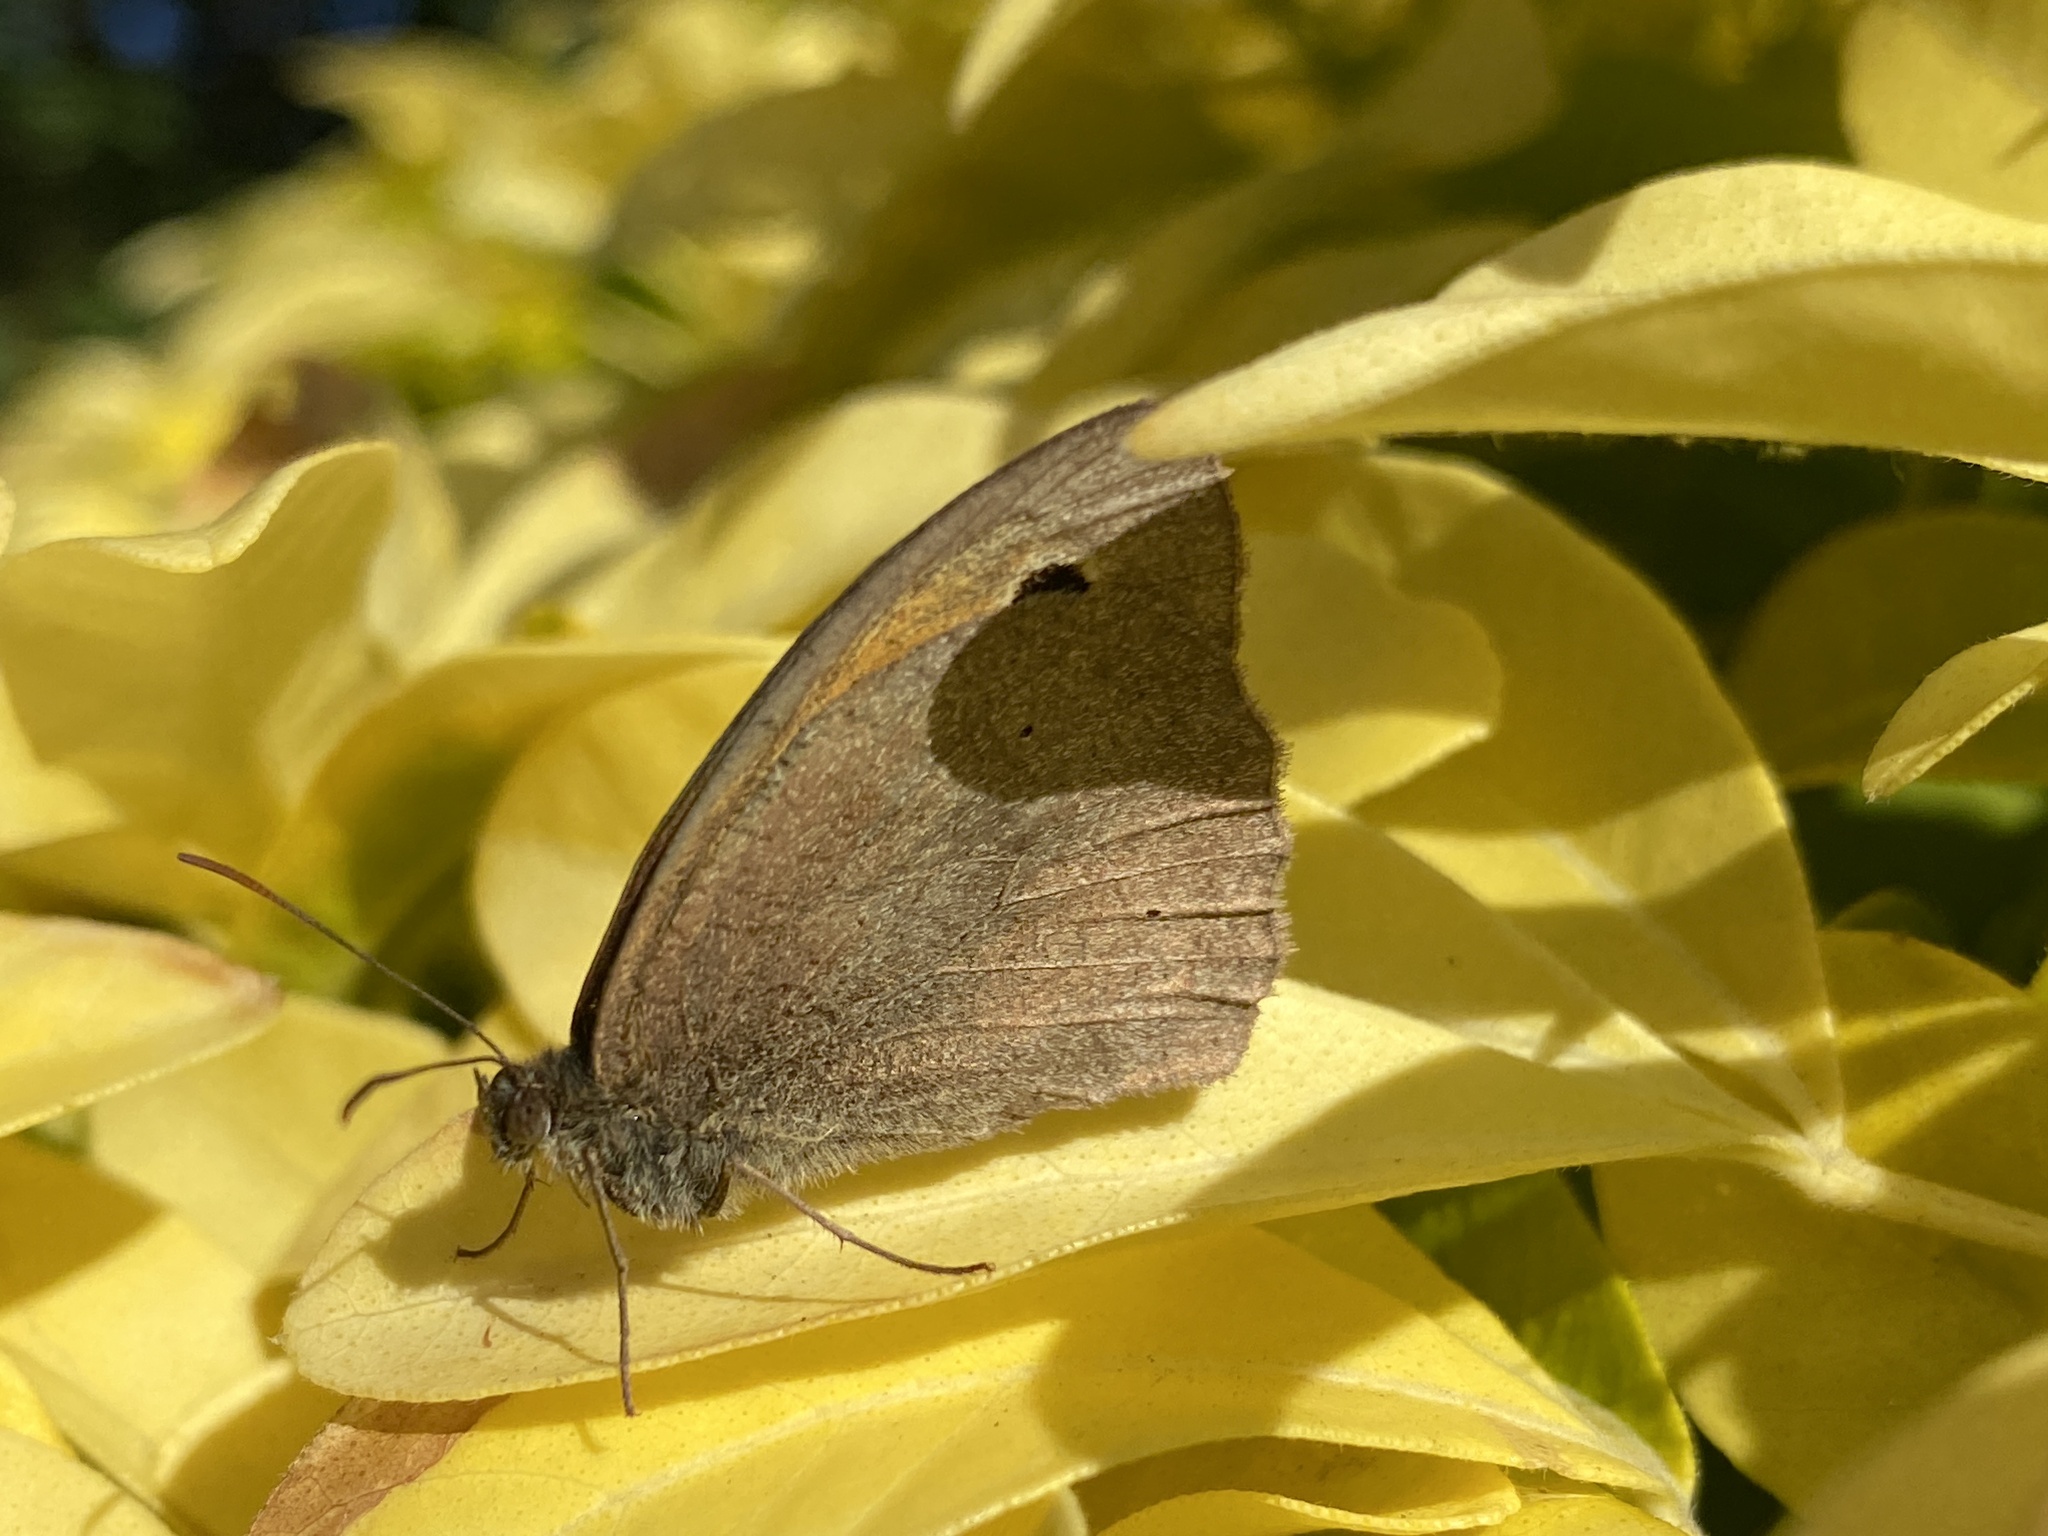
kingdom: Animalia
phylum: Arthropoda
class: Insecta
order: Lepidoptera
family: Nymphalidae
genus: Maniola
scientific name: Maniola jurtina
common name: Meadow brown
